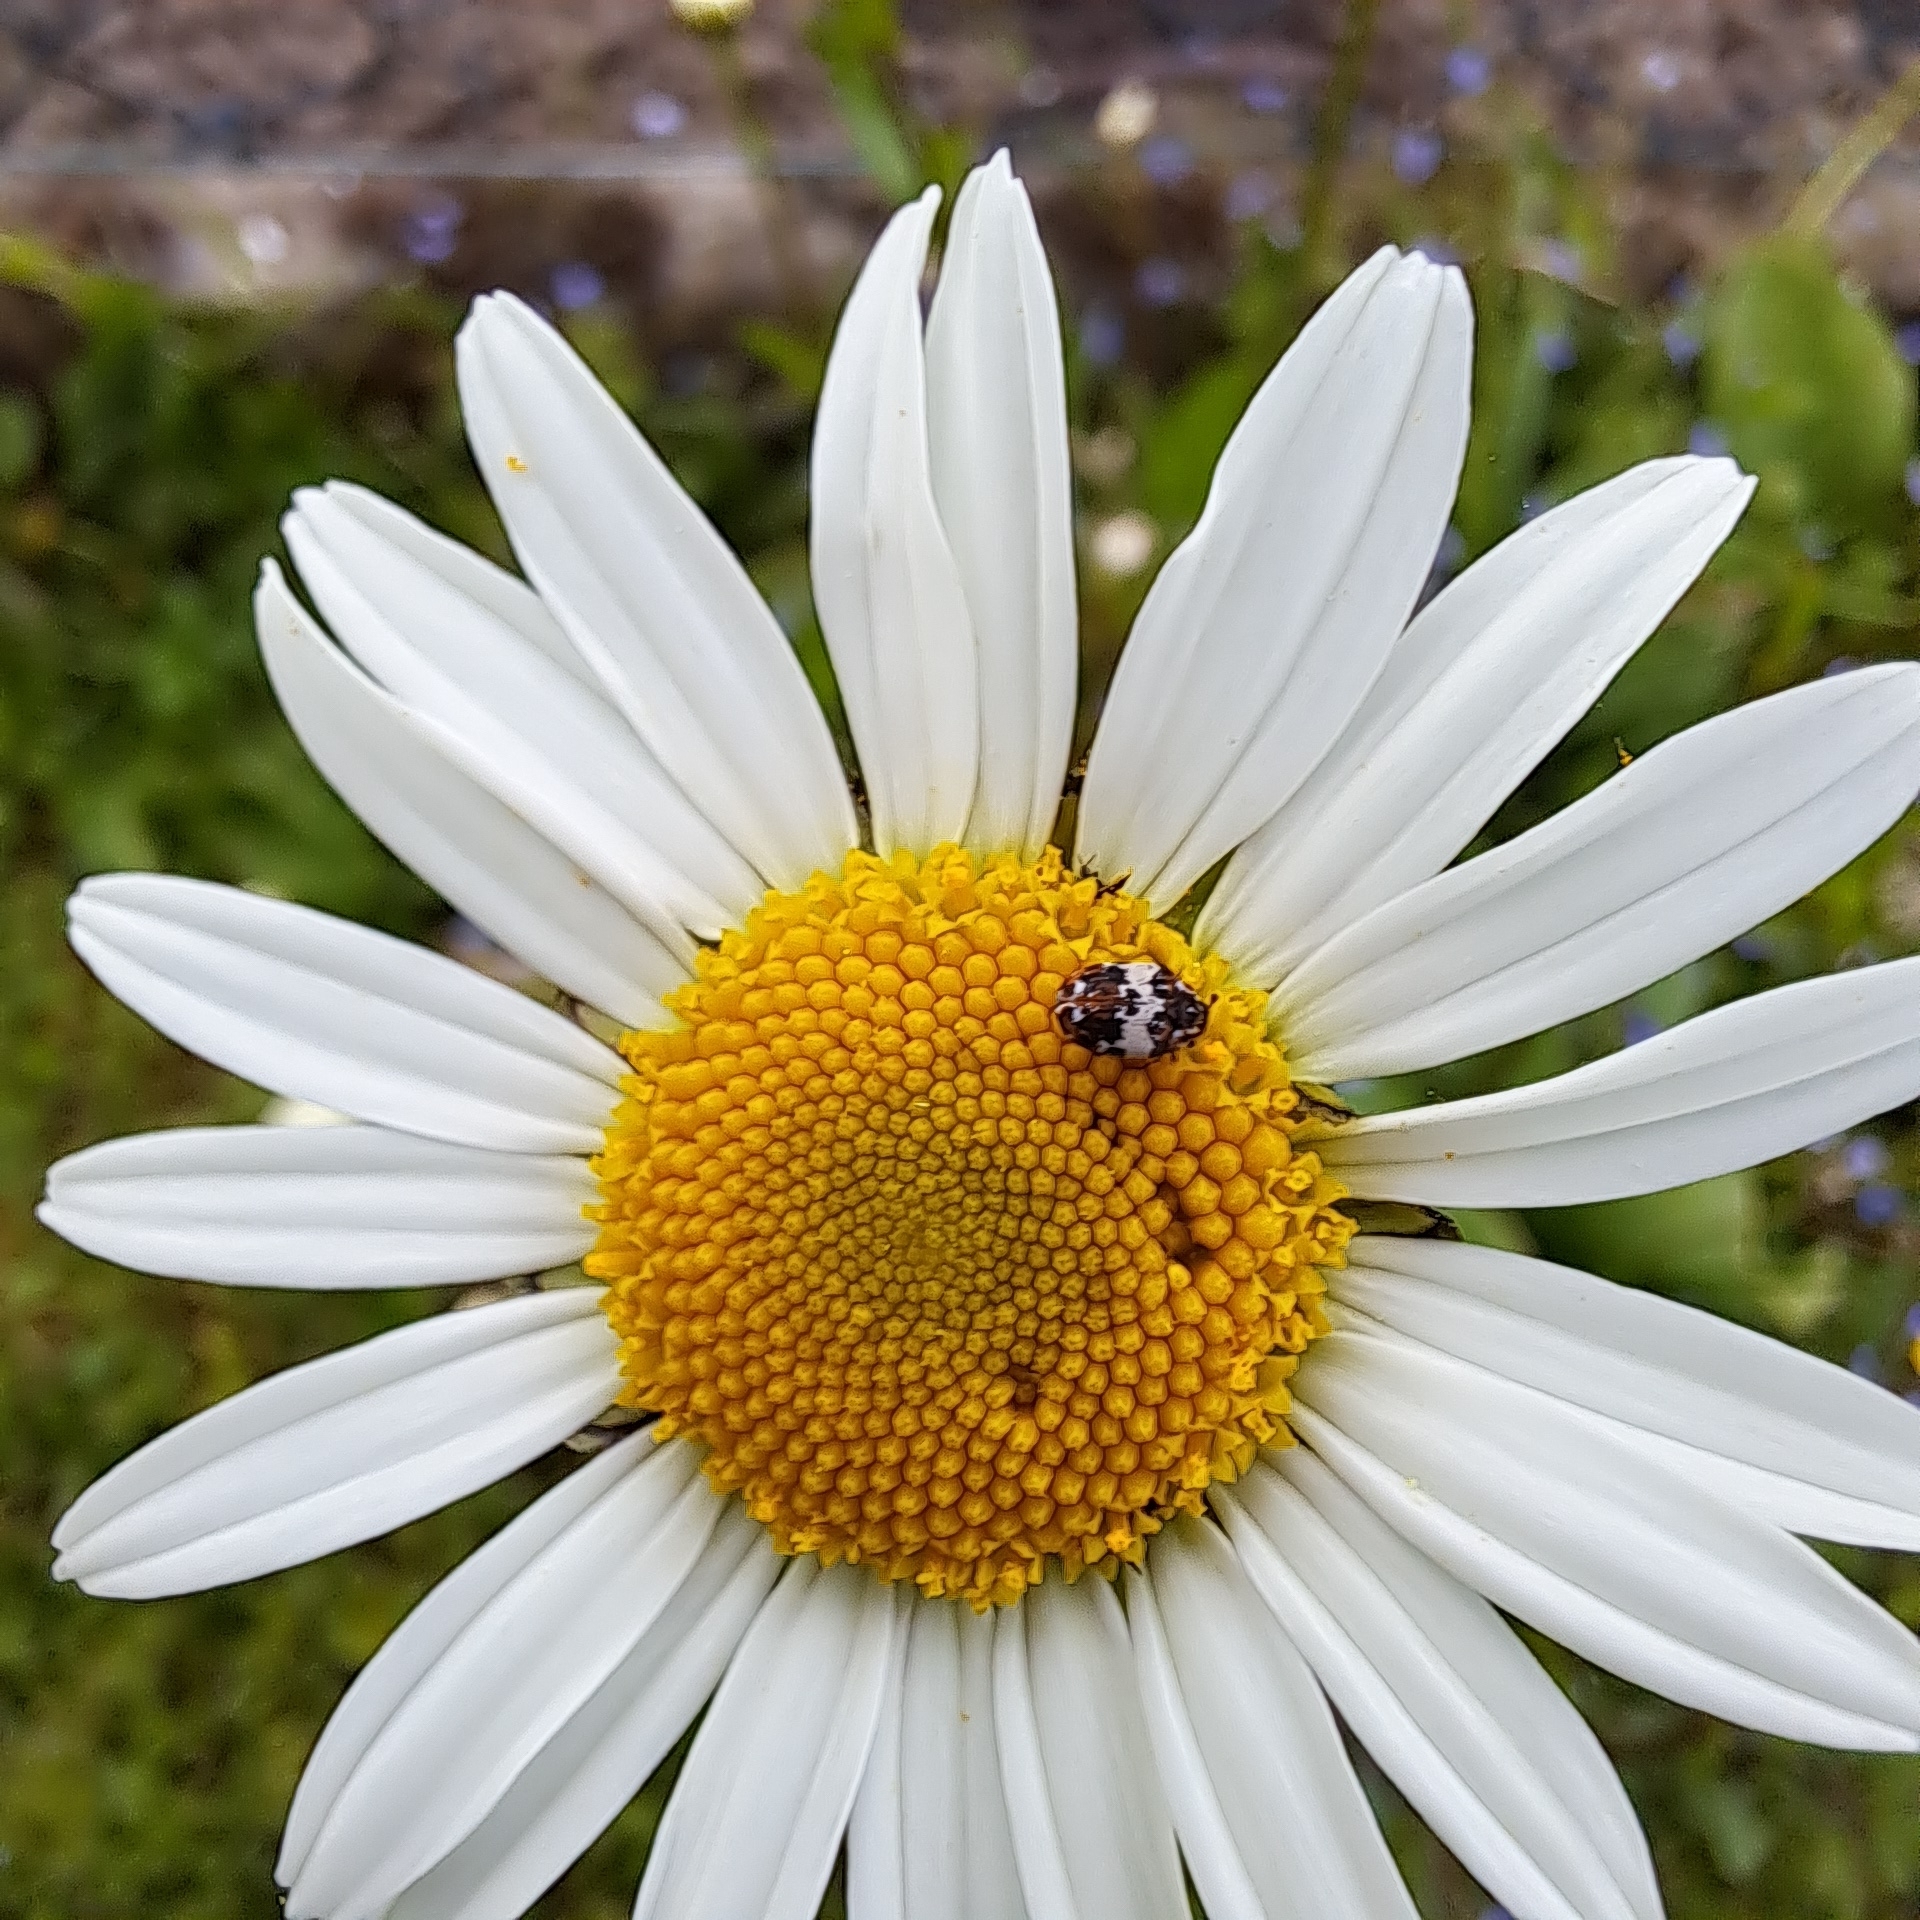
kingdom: Animalia
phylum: Arthropoda
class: Insecta
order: Coleoptera
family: Dermestidae
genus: Anthrenus
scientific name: Anthrenus pimpinellae
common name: Dermestid beetle
